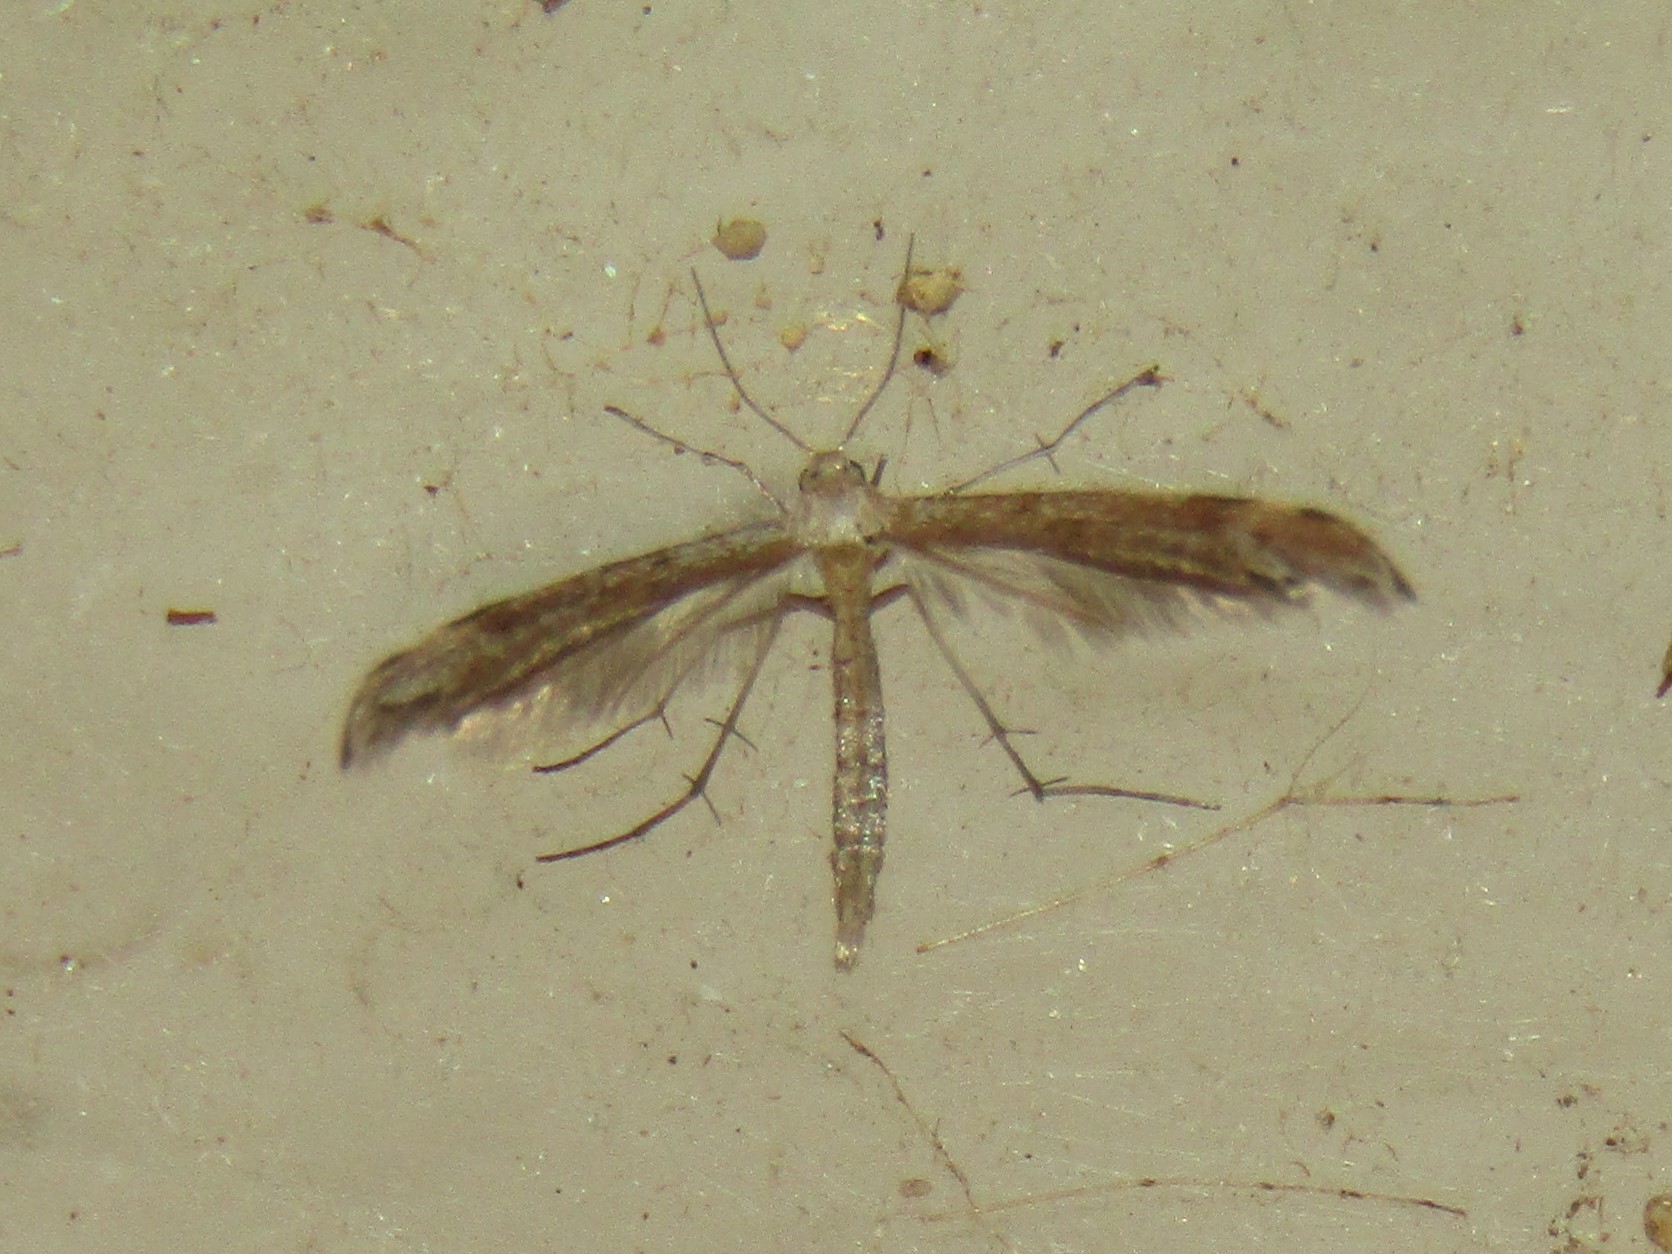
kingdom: Animalia
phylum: Arthropoda
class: Insecta
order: Lepidoptera
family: Pterophoridae
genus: Lioptilodes
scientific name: Lioptilodes albistriolatus
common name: Moth
